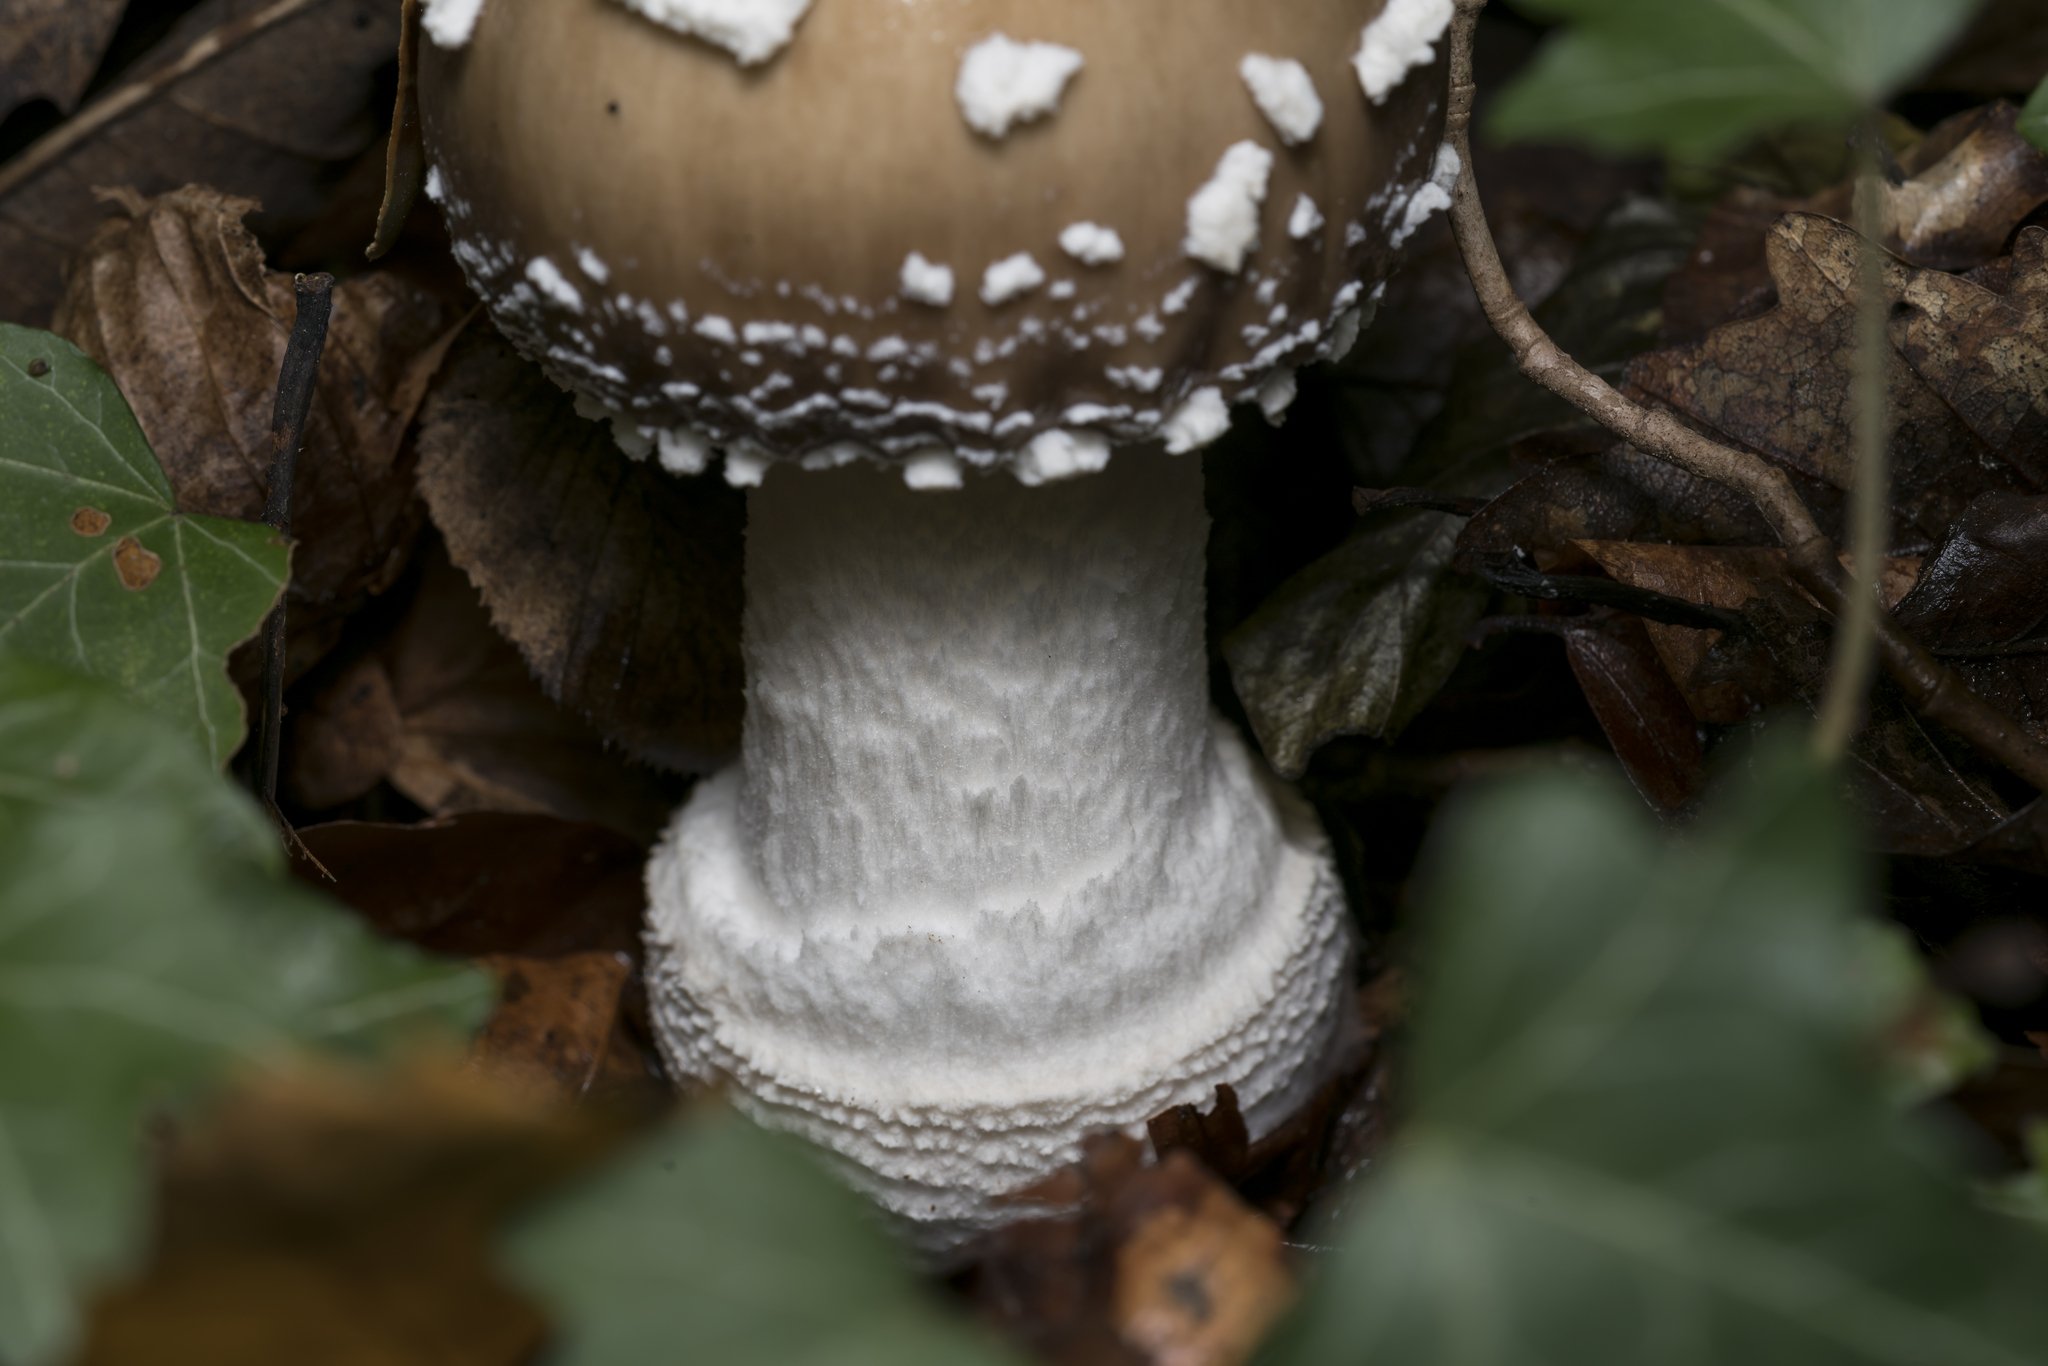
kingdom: Fungi
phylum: Basidiomycota
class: Agaricomycetes
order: Agaricales
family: Amanitaceae
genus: Amanita
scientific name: Amanita pantherina
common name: Panthercap
